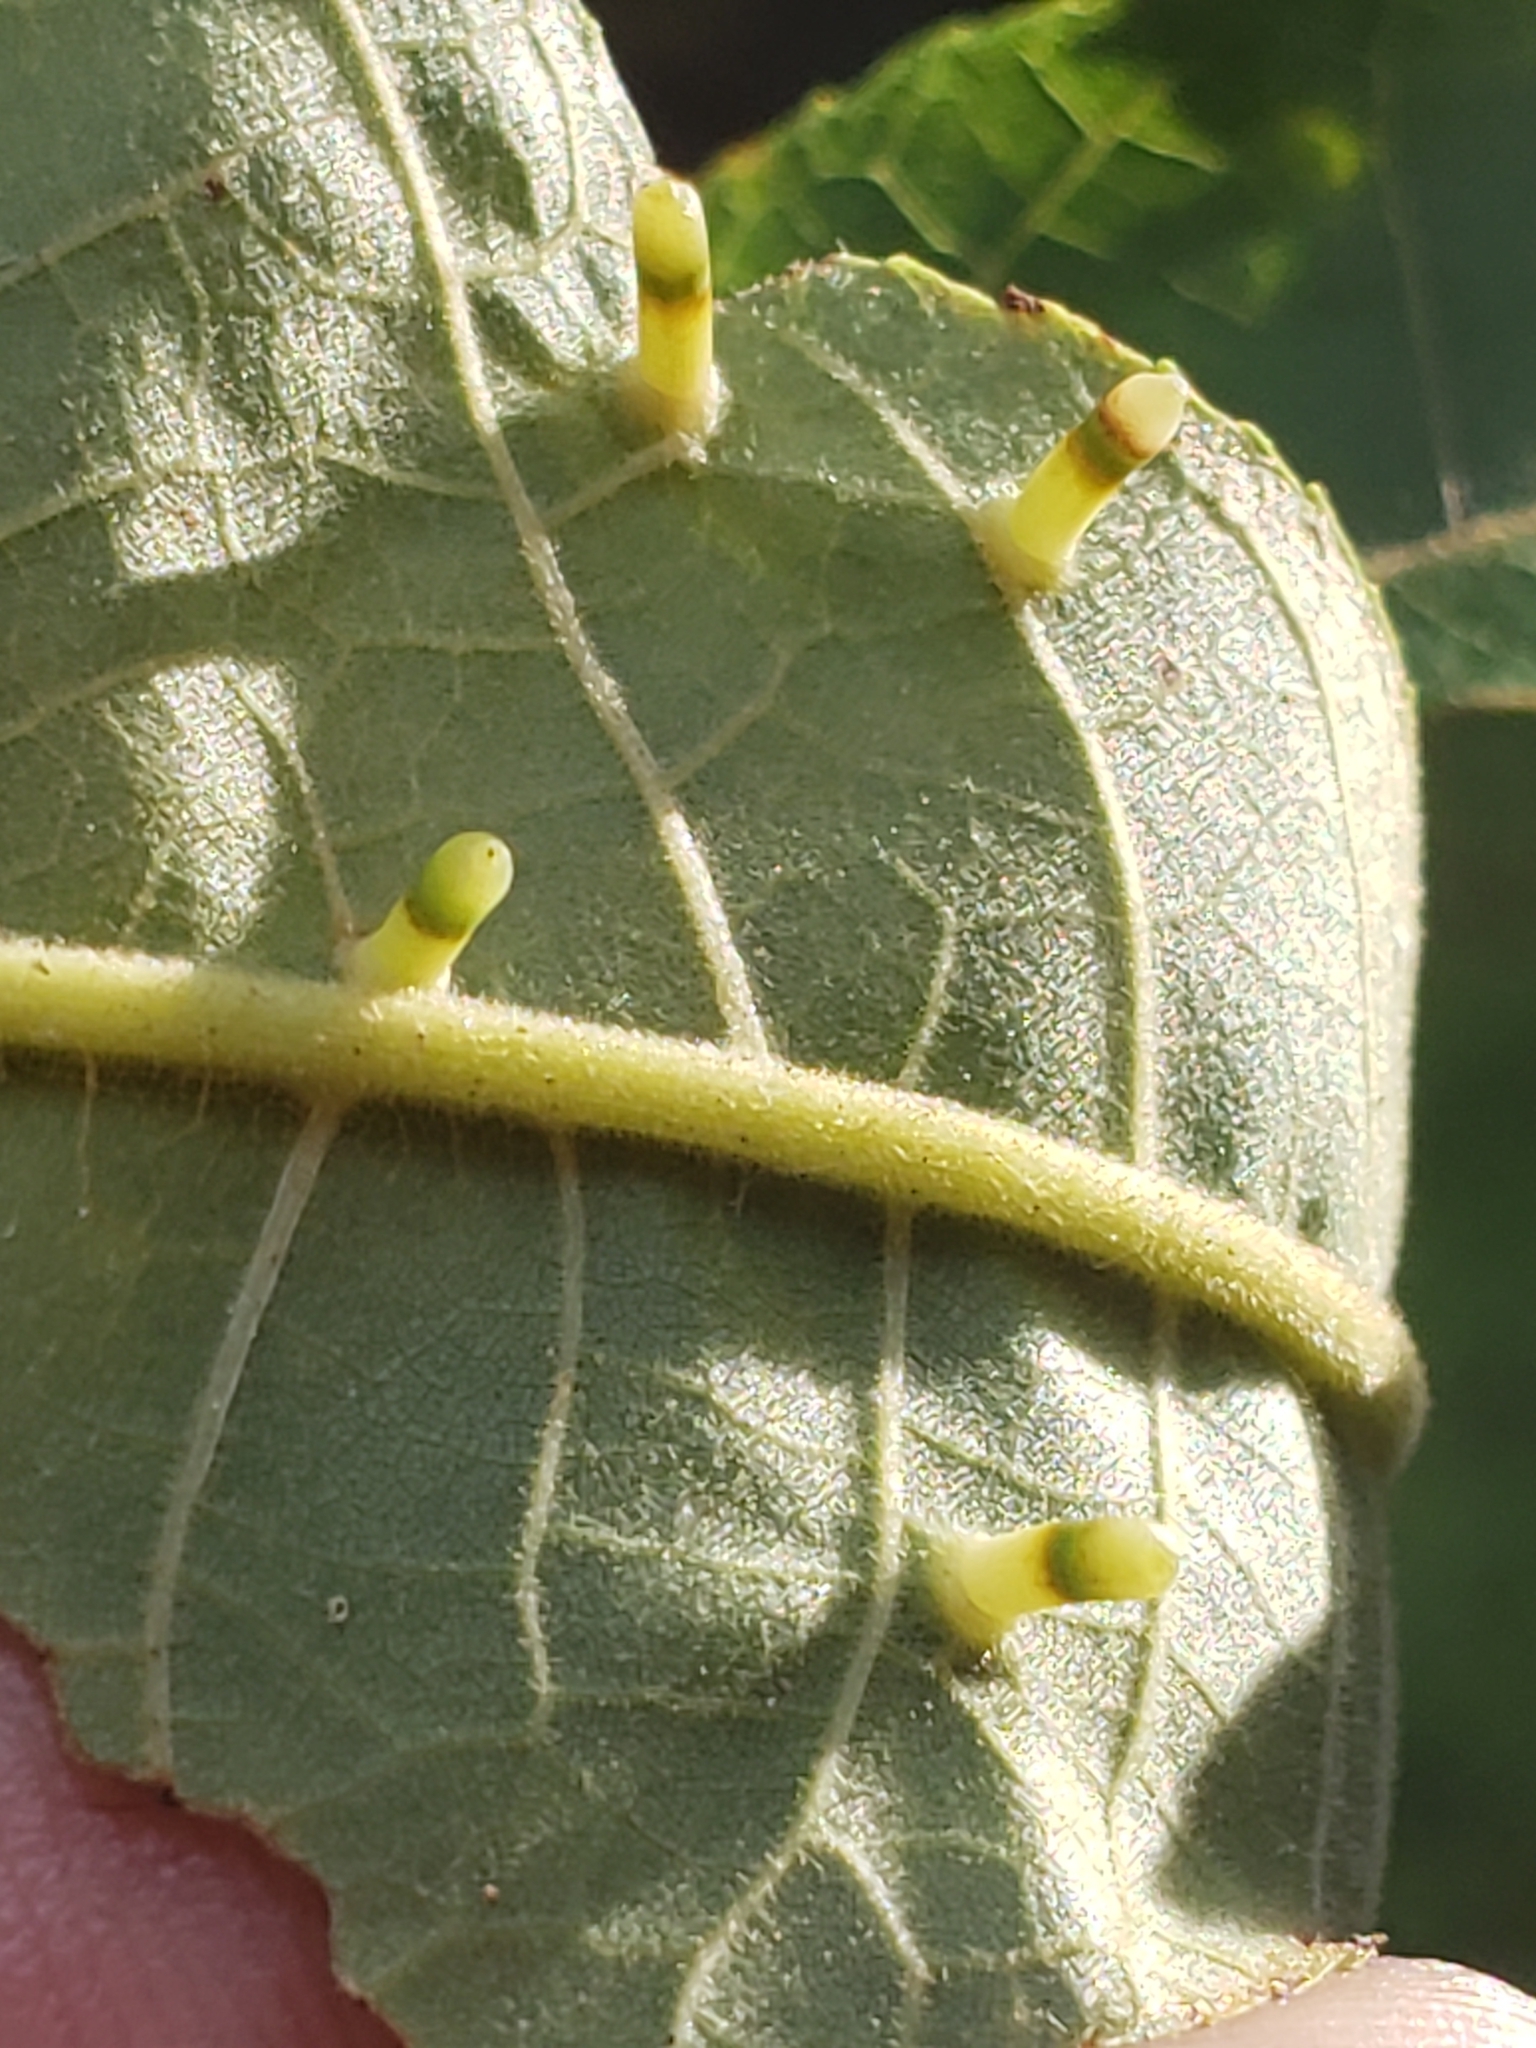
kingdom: Animalia
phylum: Arthropoda
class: Insecta
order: Diptera
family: Cecidomyiidae
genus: Caryomyia
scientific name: Caryomyia tubicola
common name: Hickory bullet gall midge
